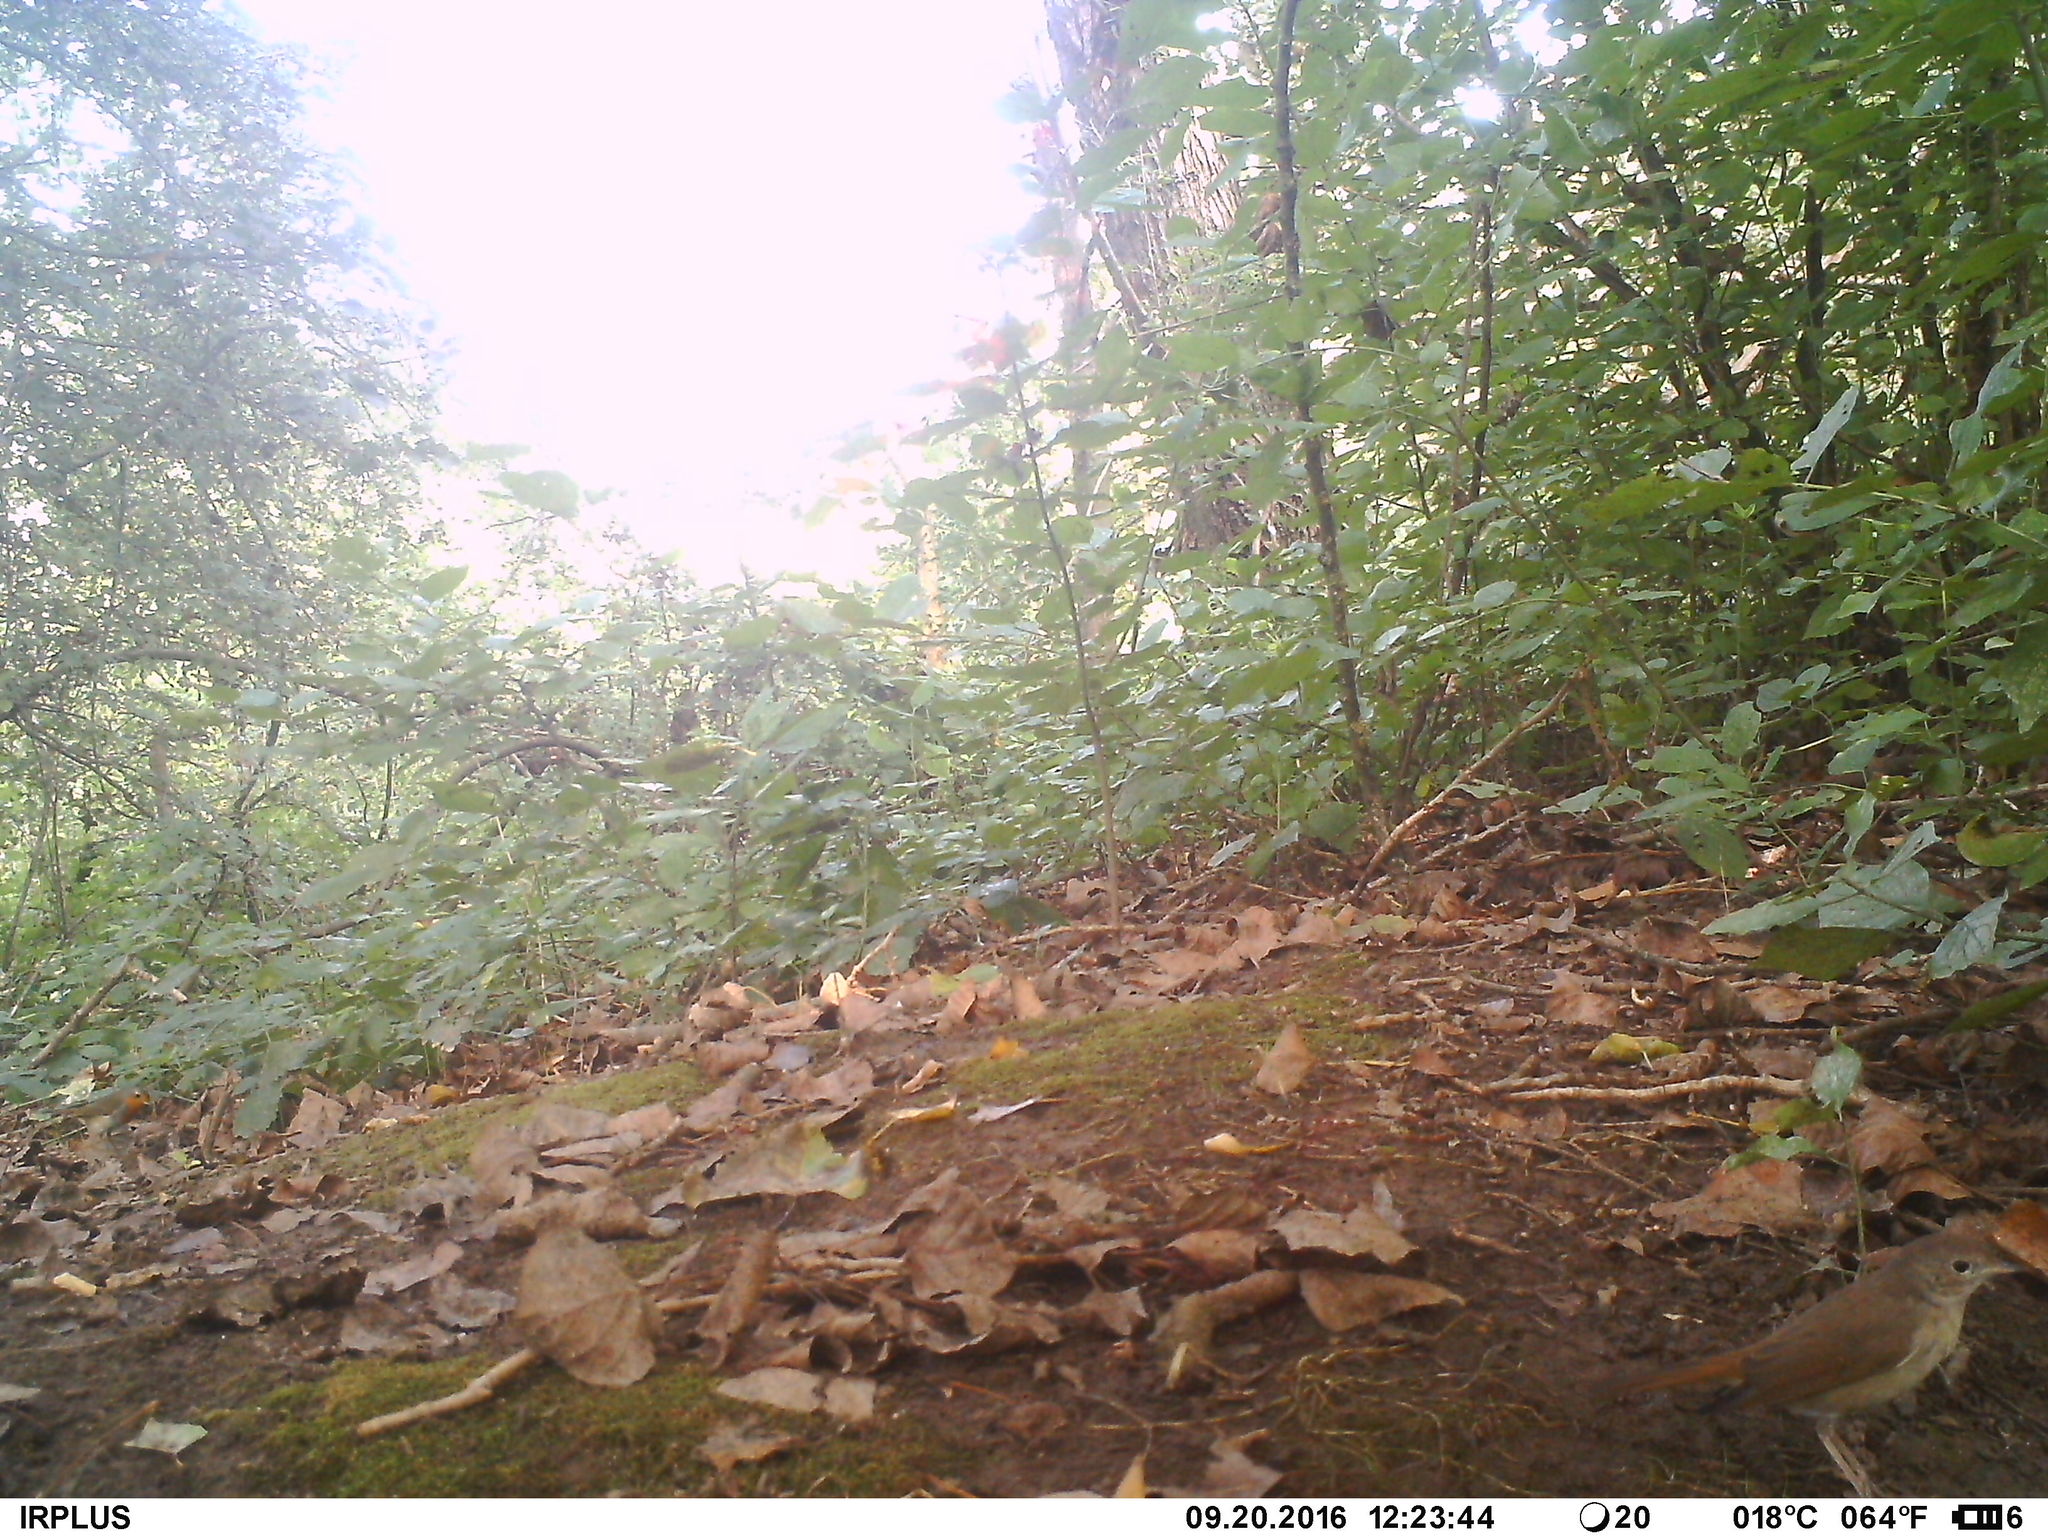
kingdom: Animalia
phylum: Chordata
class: Aves
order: Passeriformes
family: Muscicapidae
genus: Erithacus
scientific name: Erithacus rubecula
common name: European robin
